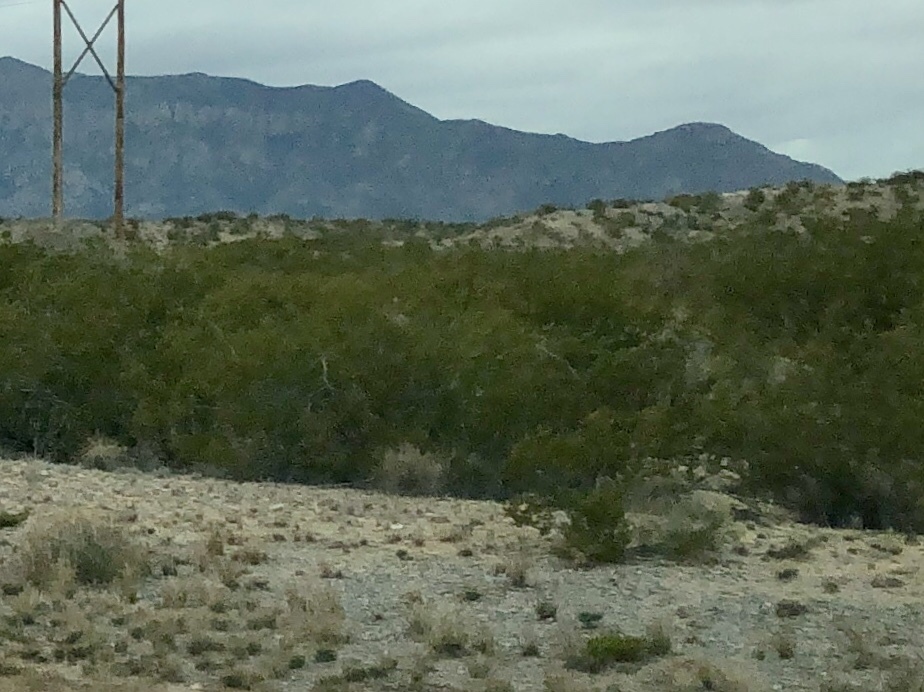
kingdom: Plantae
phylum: Tracheophyta
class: Magnoliopsida
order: Zygophyllales
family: Zygophyllaceae
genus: Larrea
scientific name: Larrea tridentata
